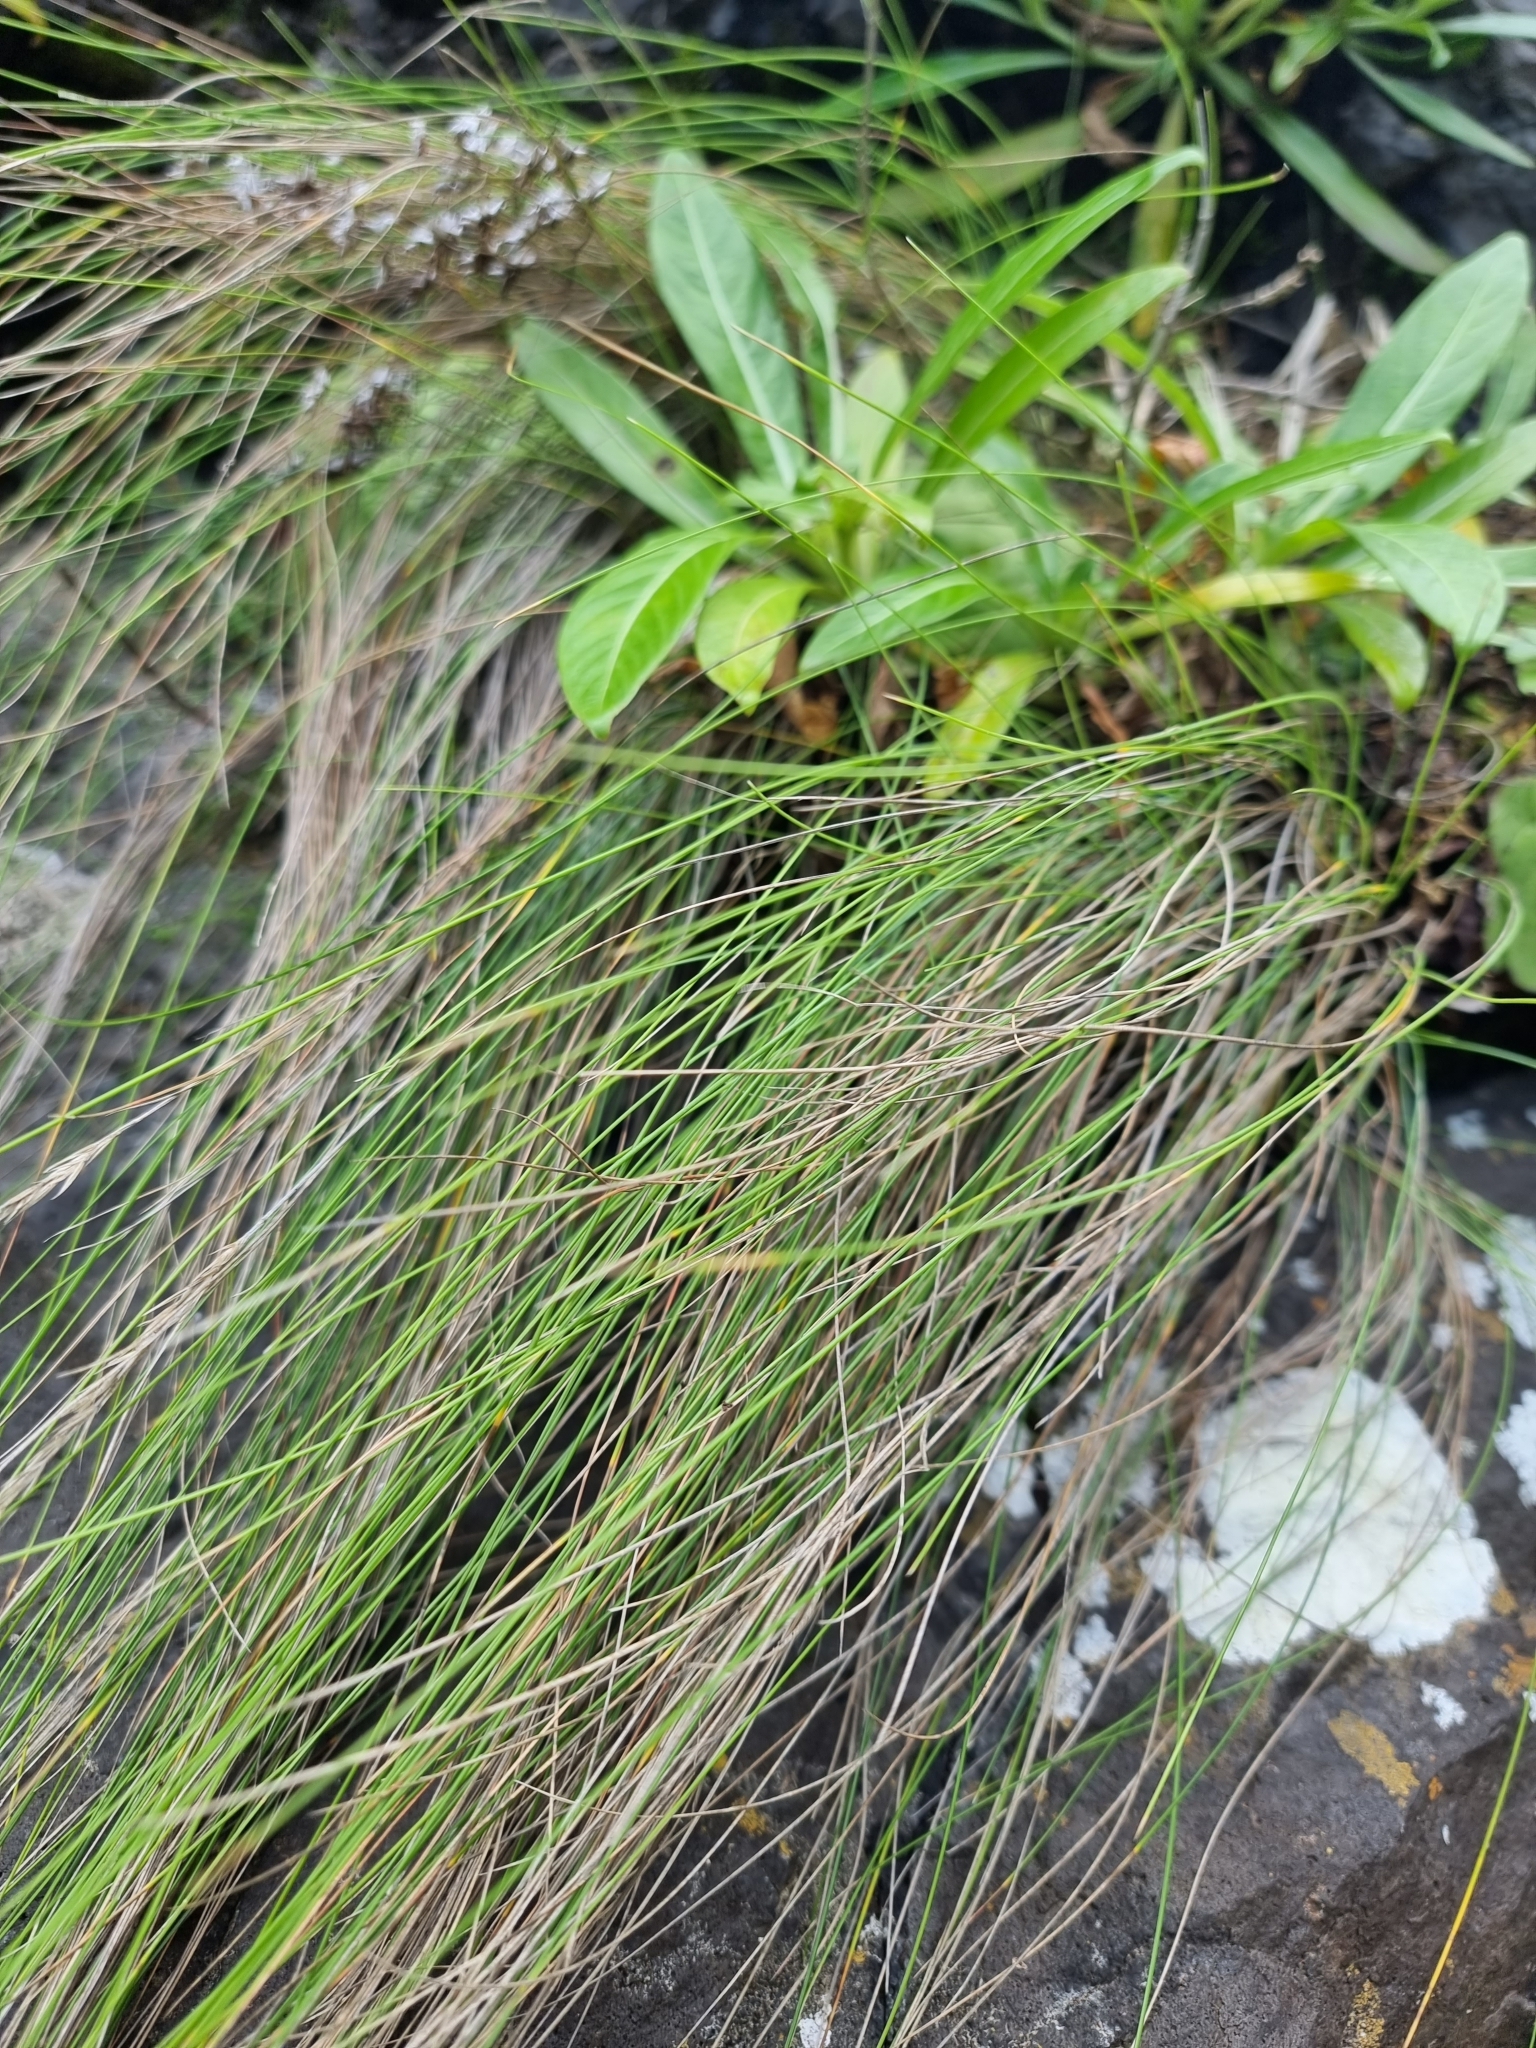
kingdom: Plantae
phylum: Tracheophyta
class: Liliopsida
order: Poales
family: Poaceae
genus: Festuca
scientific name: Festuca jubata
